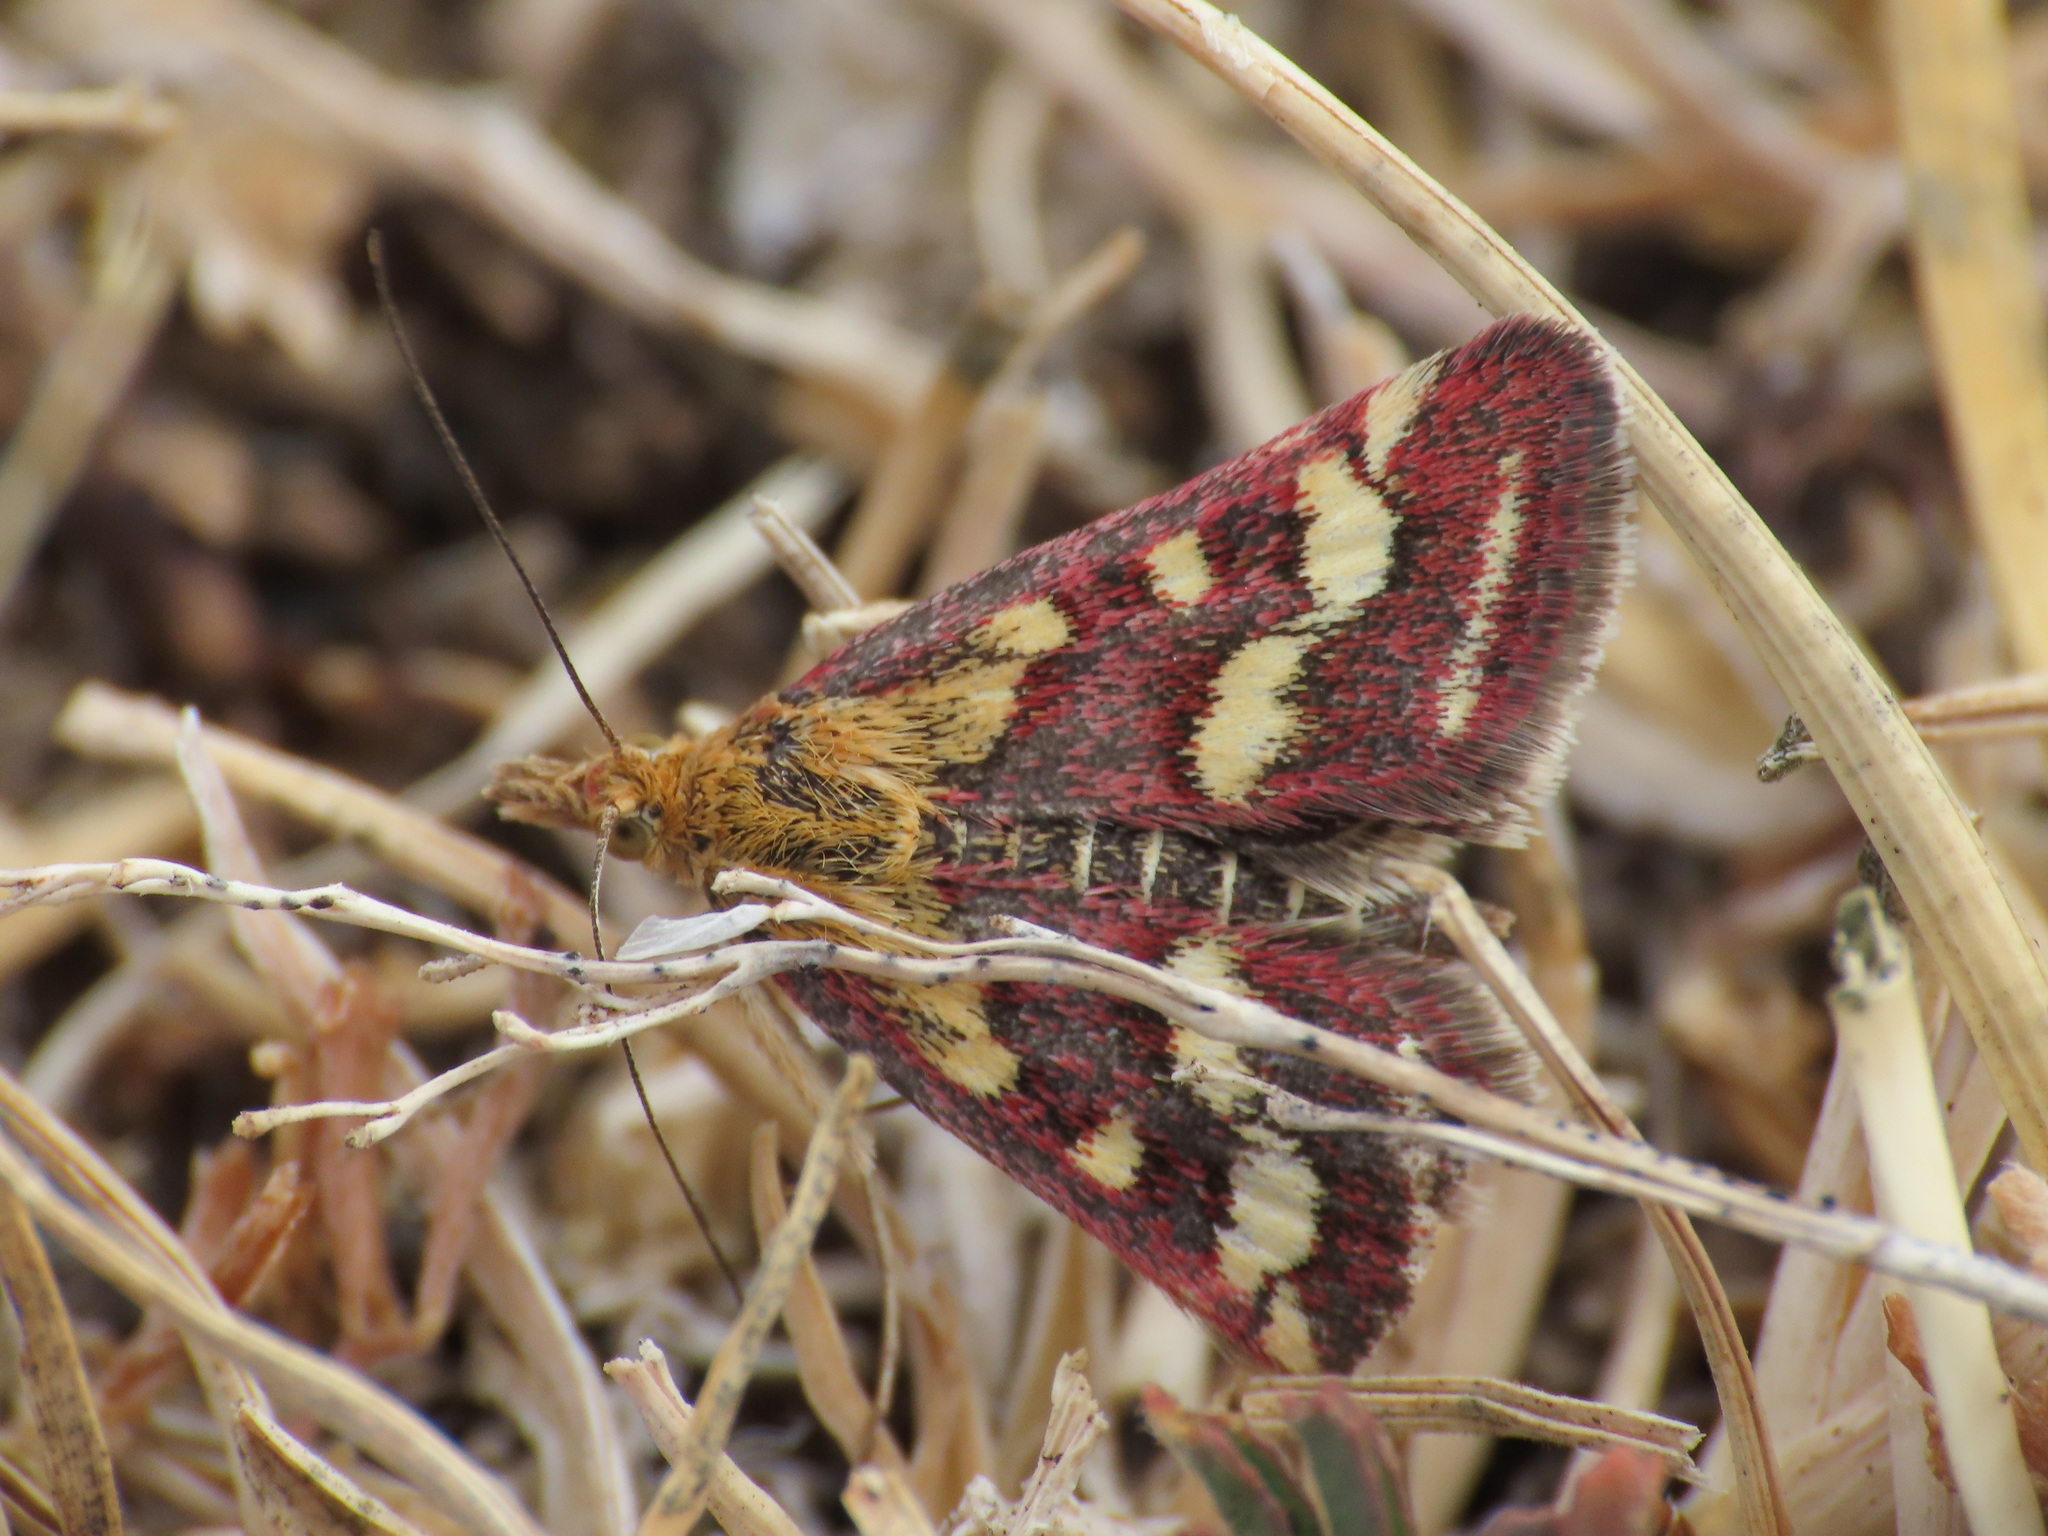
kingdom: Animalia
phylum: Arthropoda
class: Insecta
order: Lepidoptera
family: Crambidae
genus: Pyrausta
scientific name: Pyrausta purpuralis
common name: Common purple & gold
